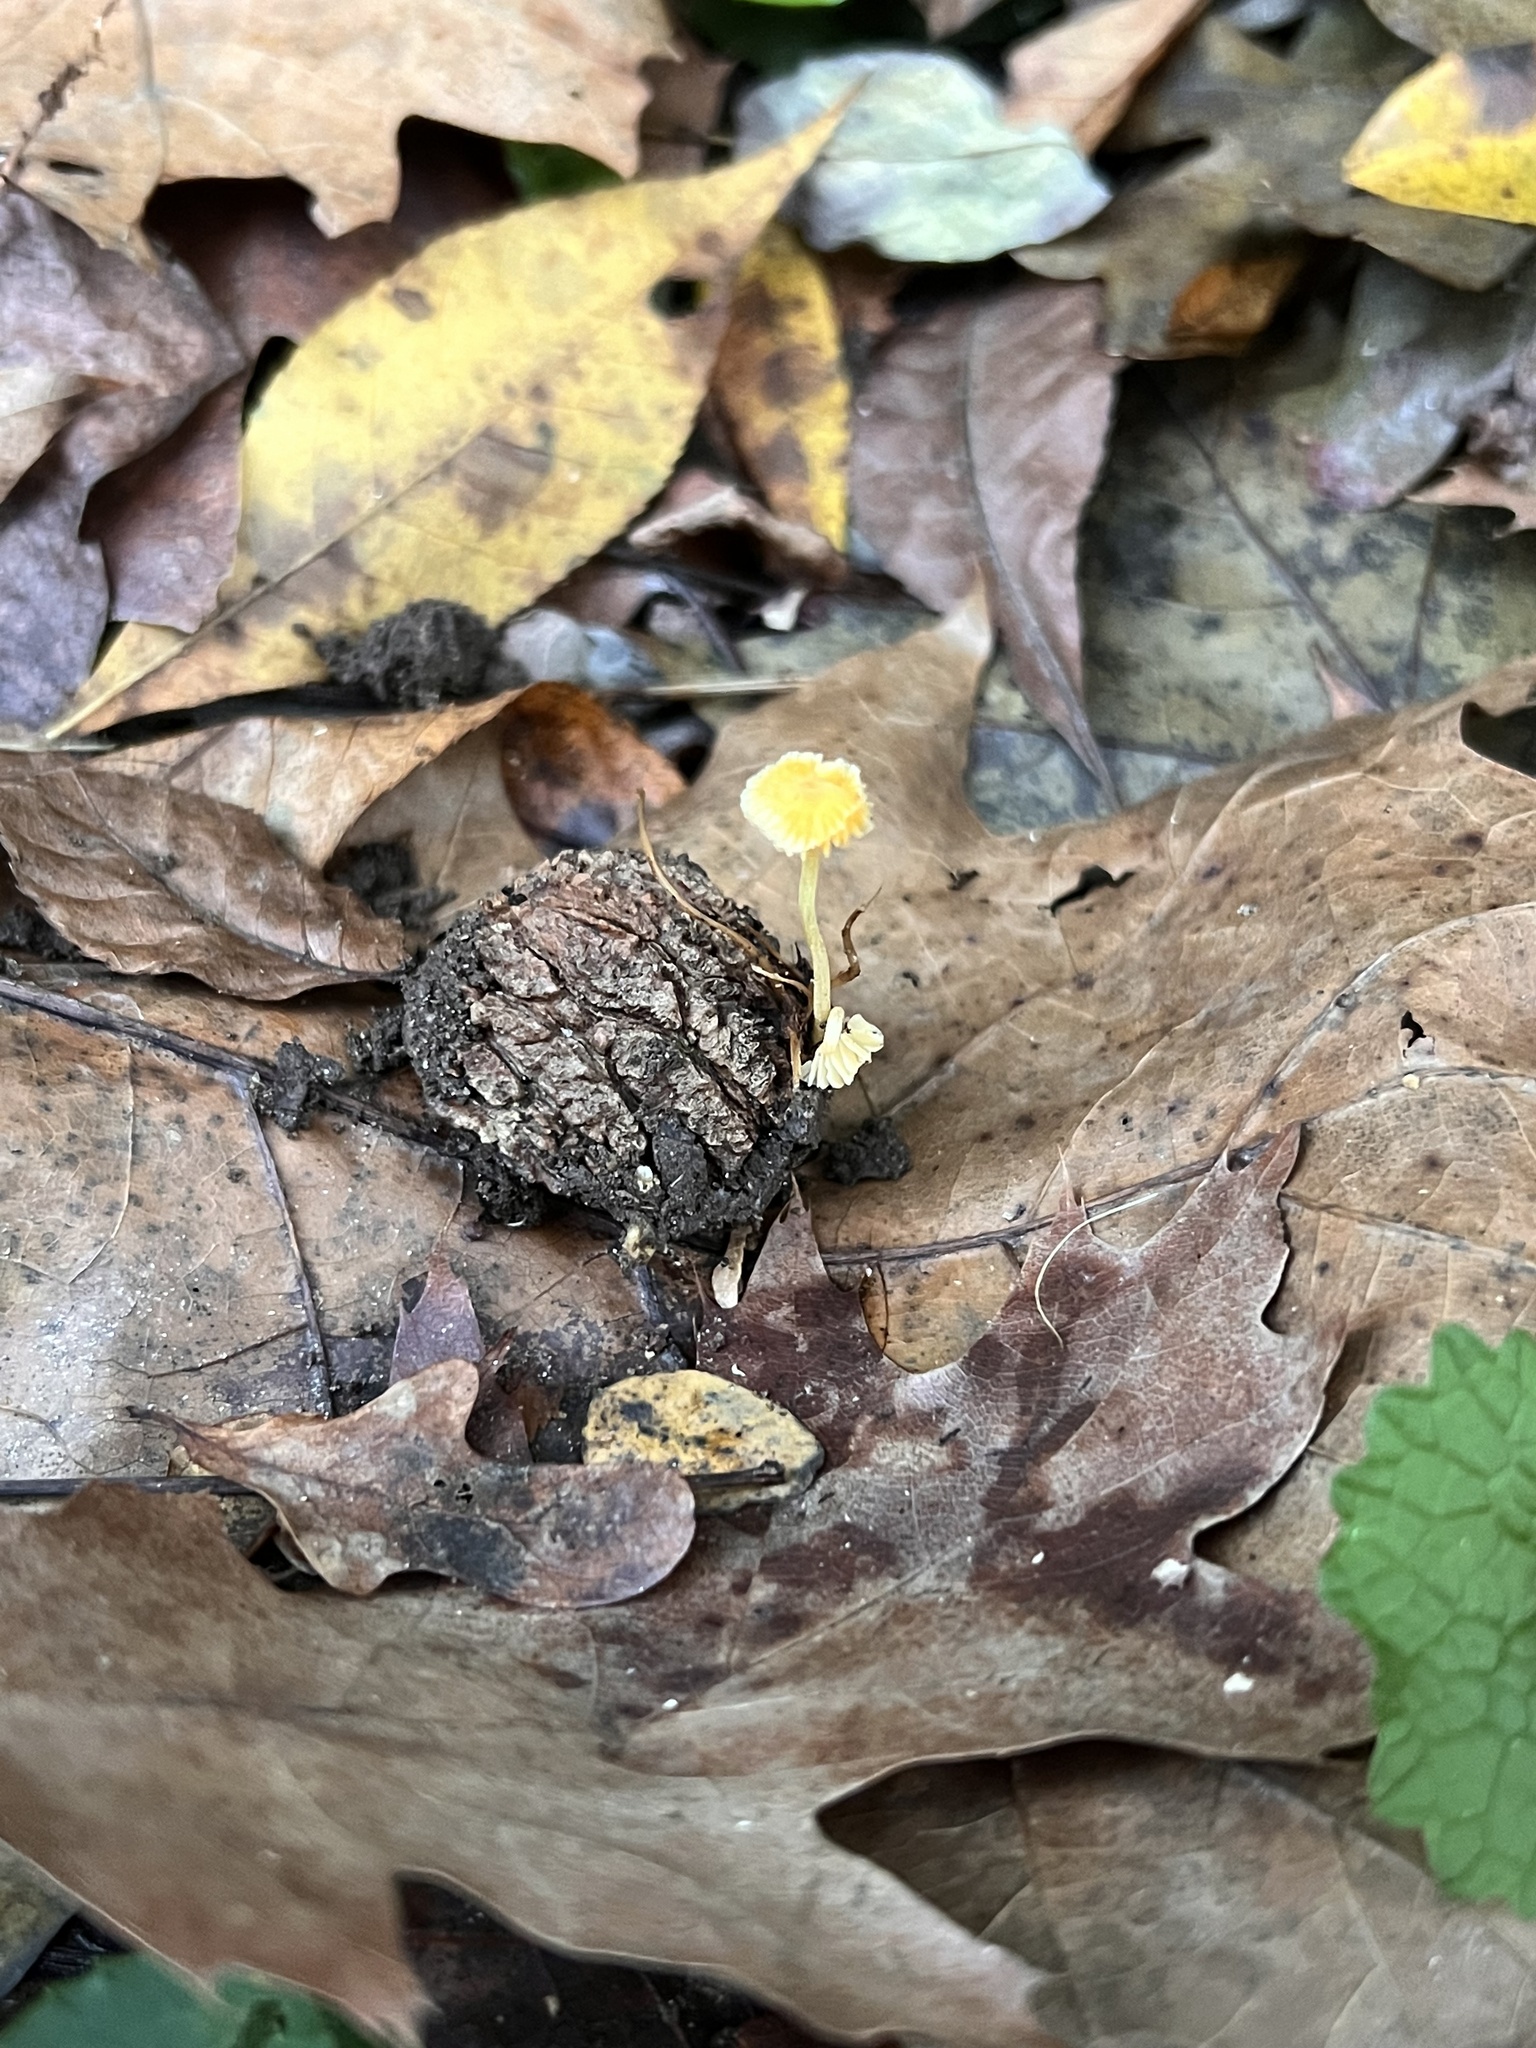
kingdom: Fungi
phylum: Basidiomycota
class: Agaricomycetes
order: Agaricales
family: Mycenaceae
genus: Mycena
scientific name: Mycena crocea
